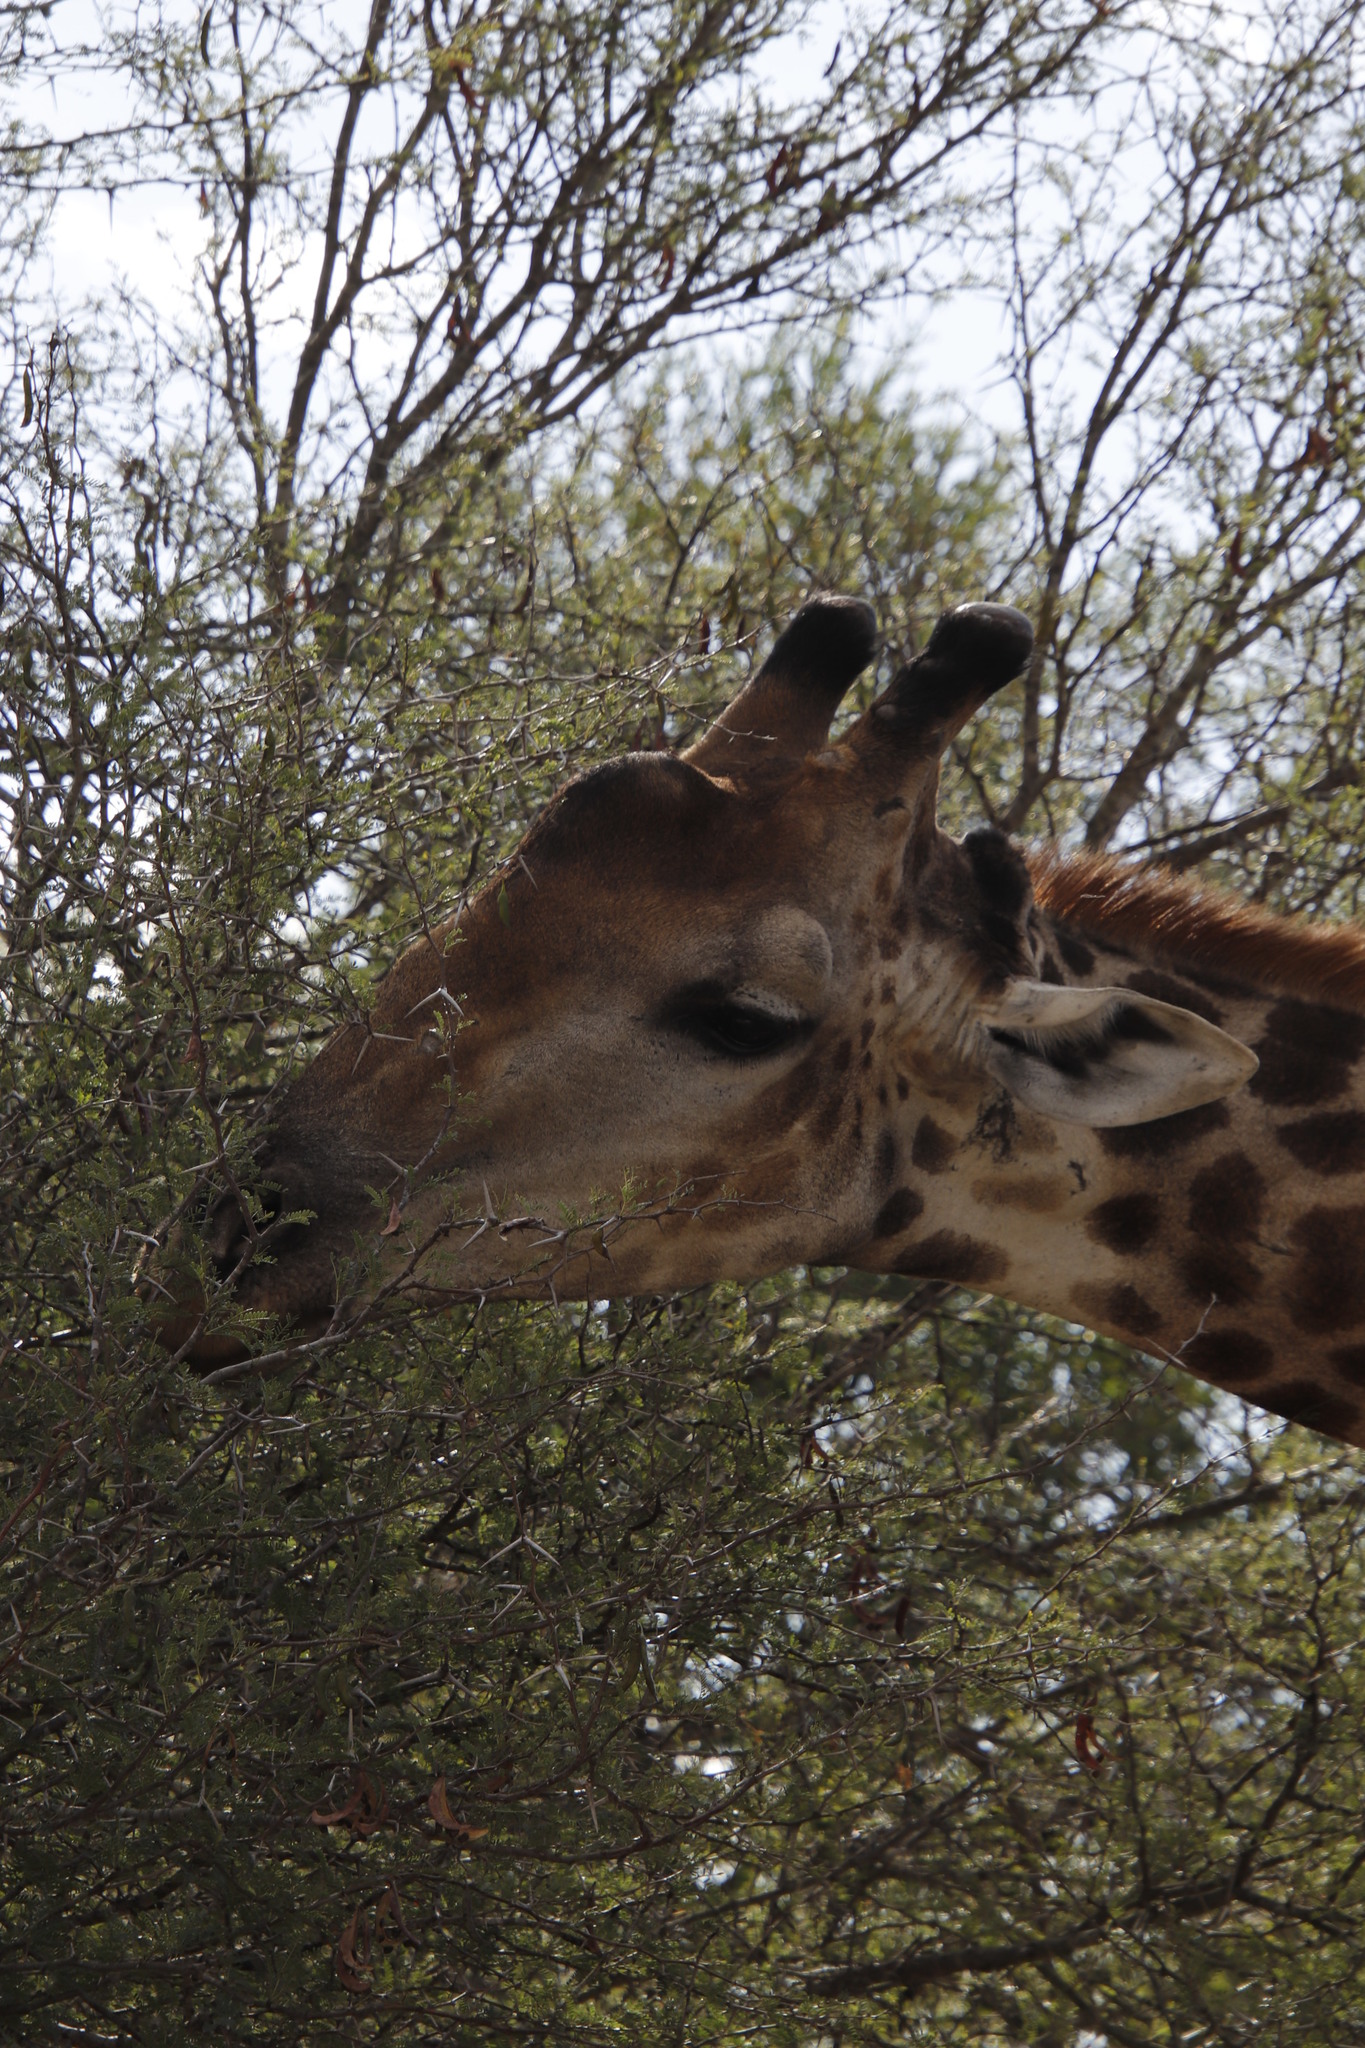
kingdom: Animalia
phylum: Chordata
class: Mammalia
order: Artiodactyla
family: Giraffidae
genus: Giraffa
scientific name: Giraffa giraffa
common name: Southern giraffe
